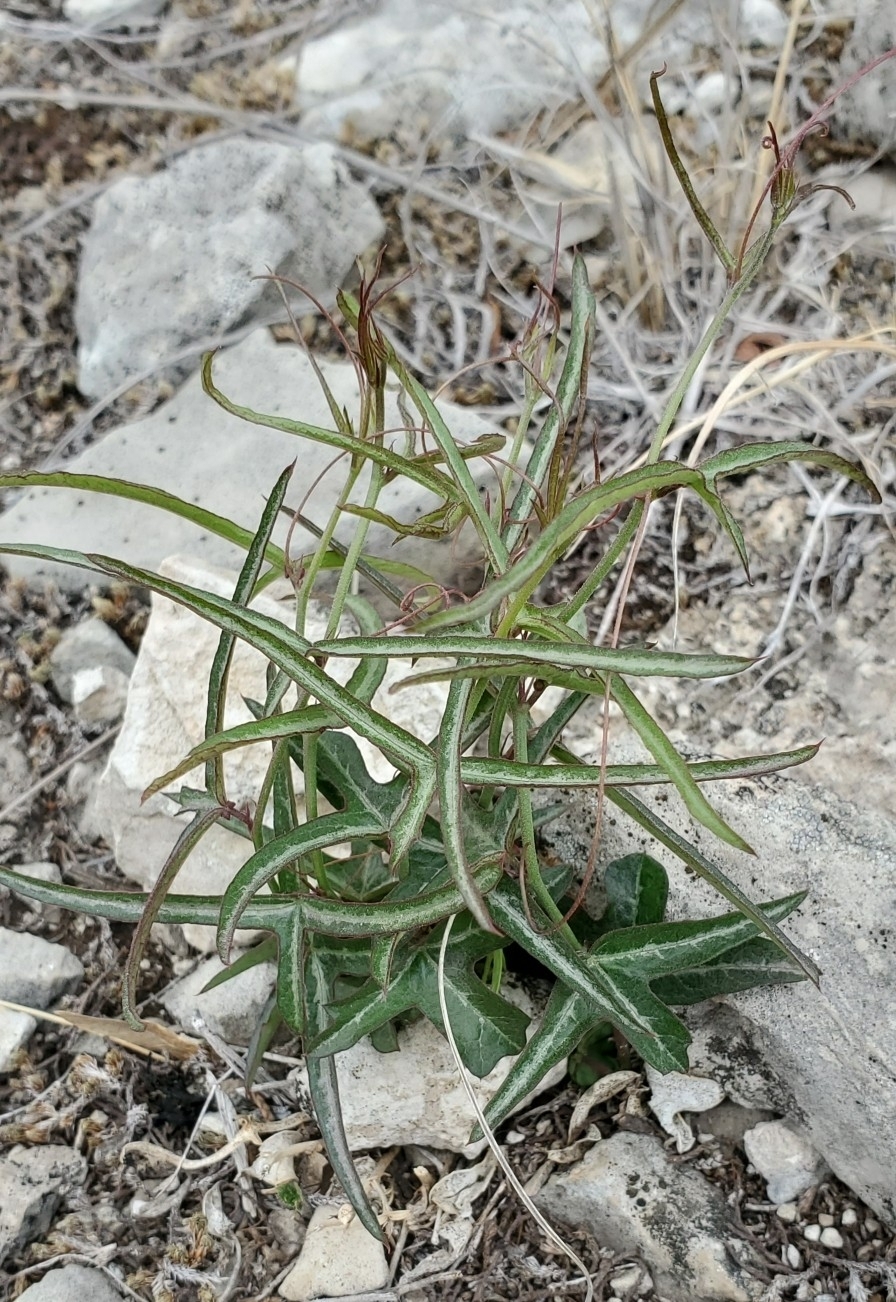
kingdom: Plantae
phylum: Tracheophyta
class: Magnoliopsida
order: Malpighiales
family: Passifloraceae
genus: Passiflora
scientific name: Passiflora tenuiloba
